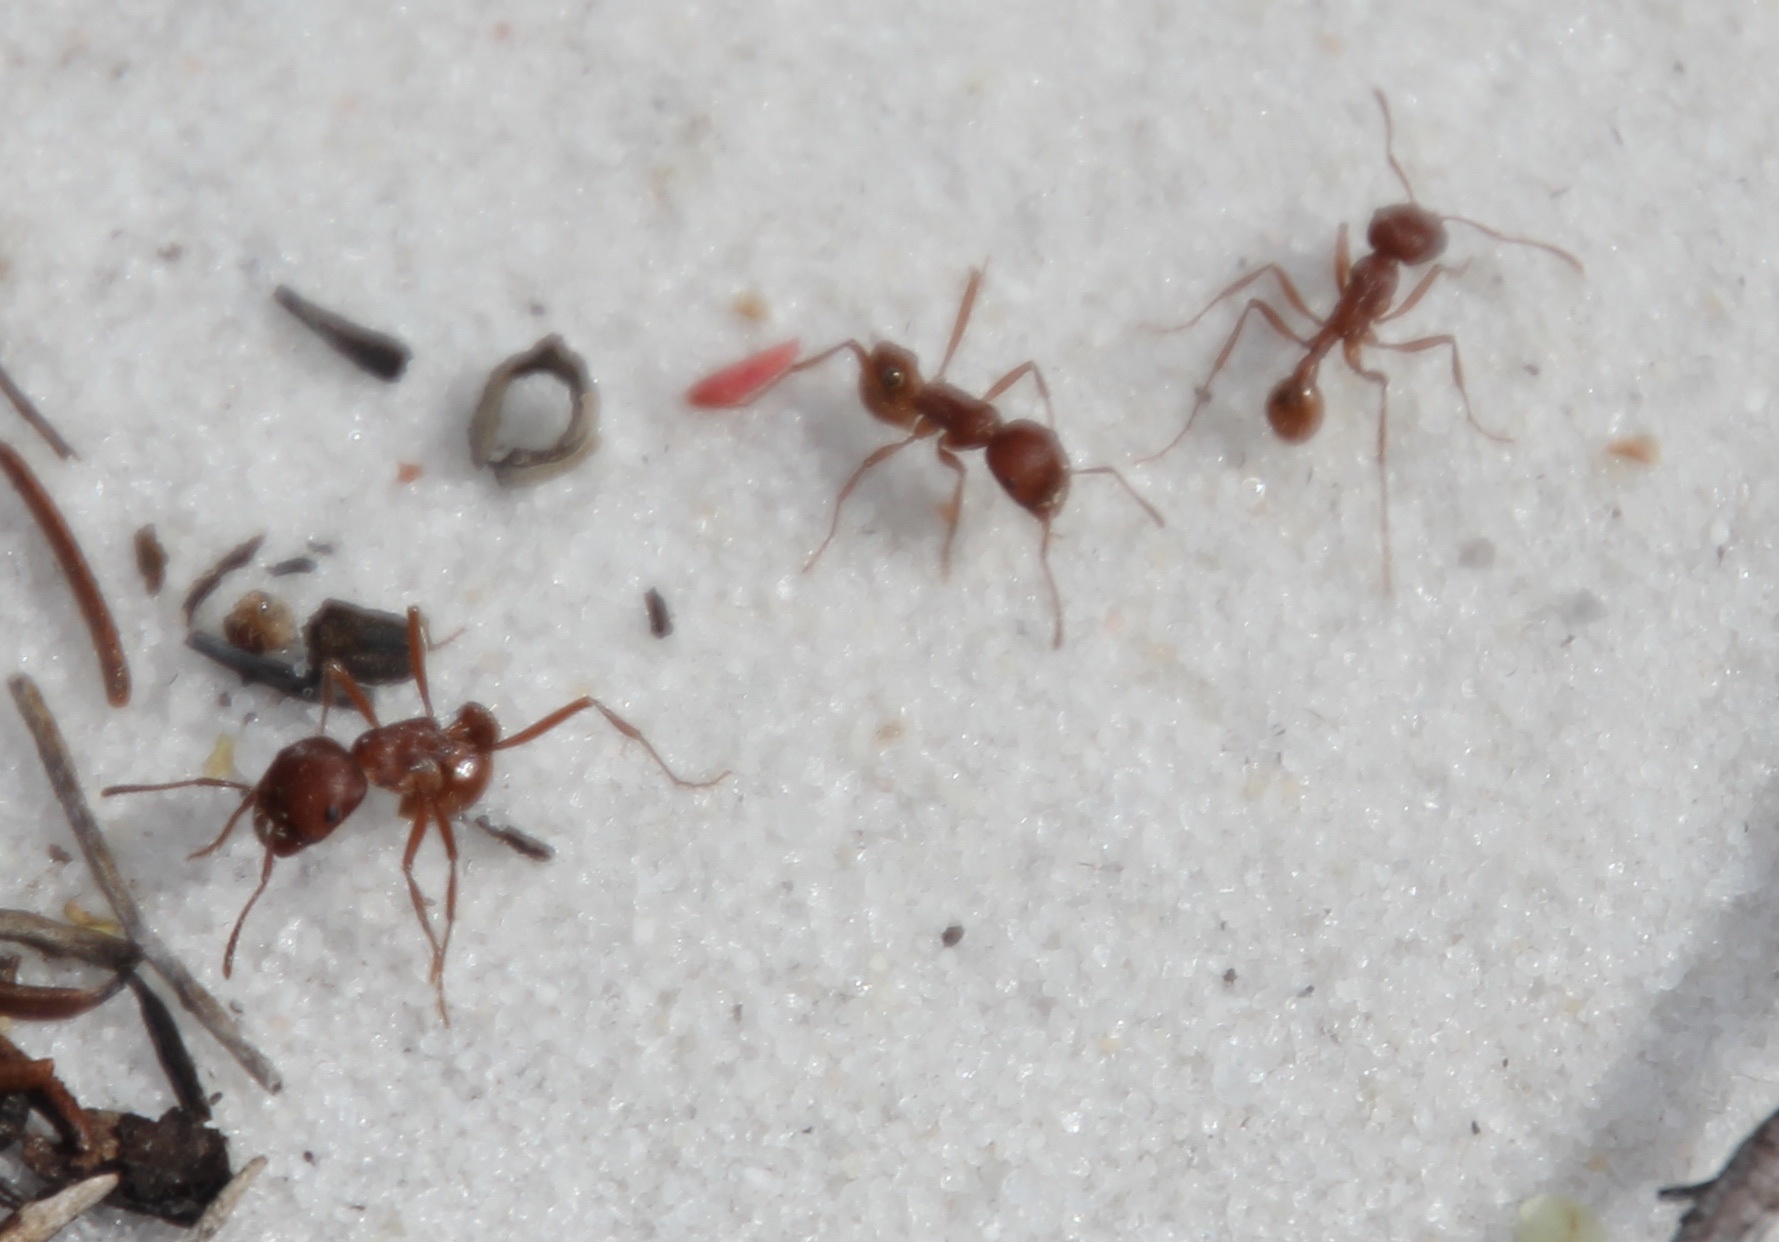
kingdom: Animalia
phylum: Arthropoda
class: Insecta
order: Hymenoptera
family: Formicidae
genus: Pogonomyrmex
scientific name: Pogonomyrmex badius
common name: Florida harvester ant
